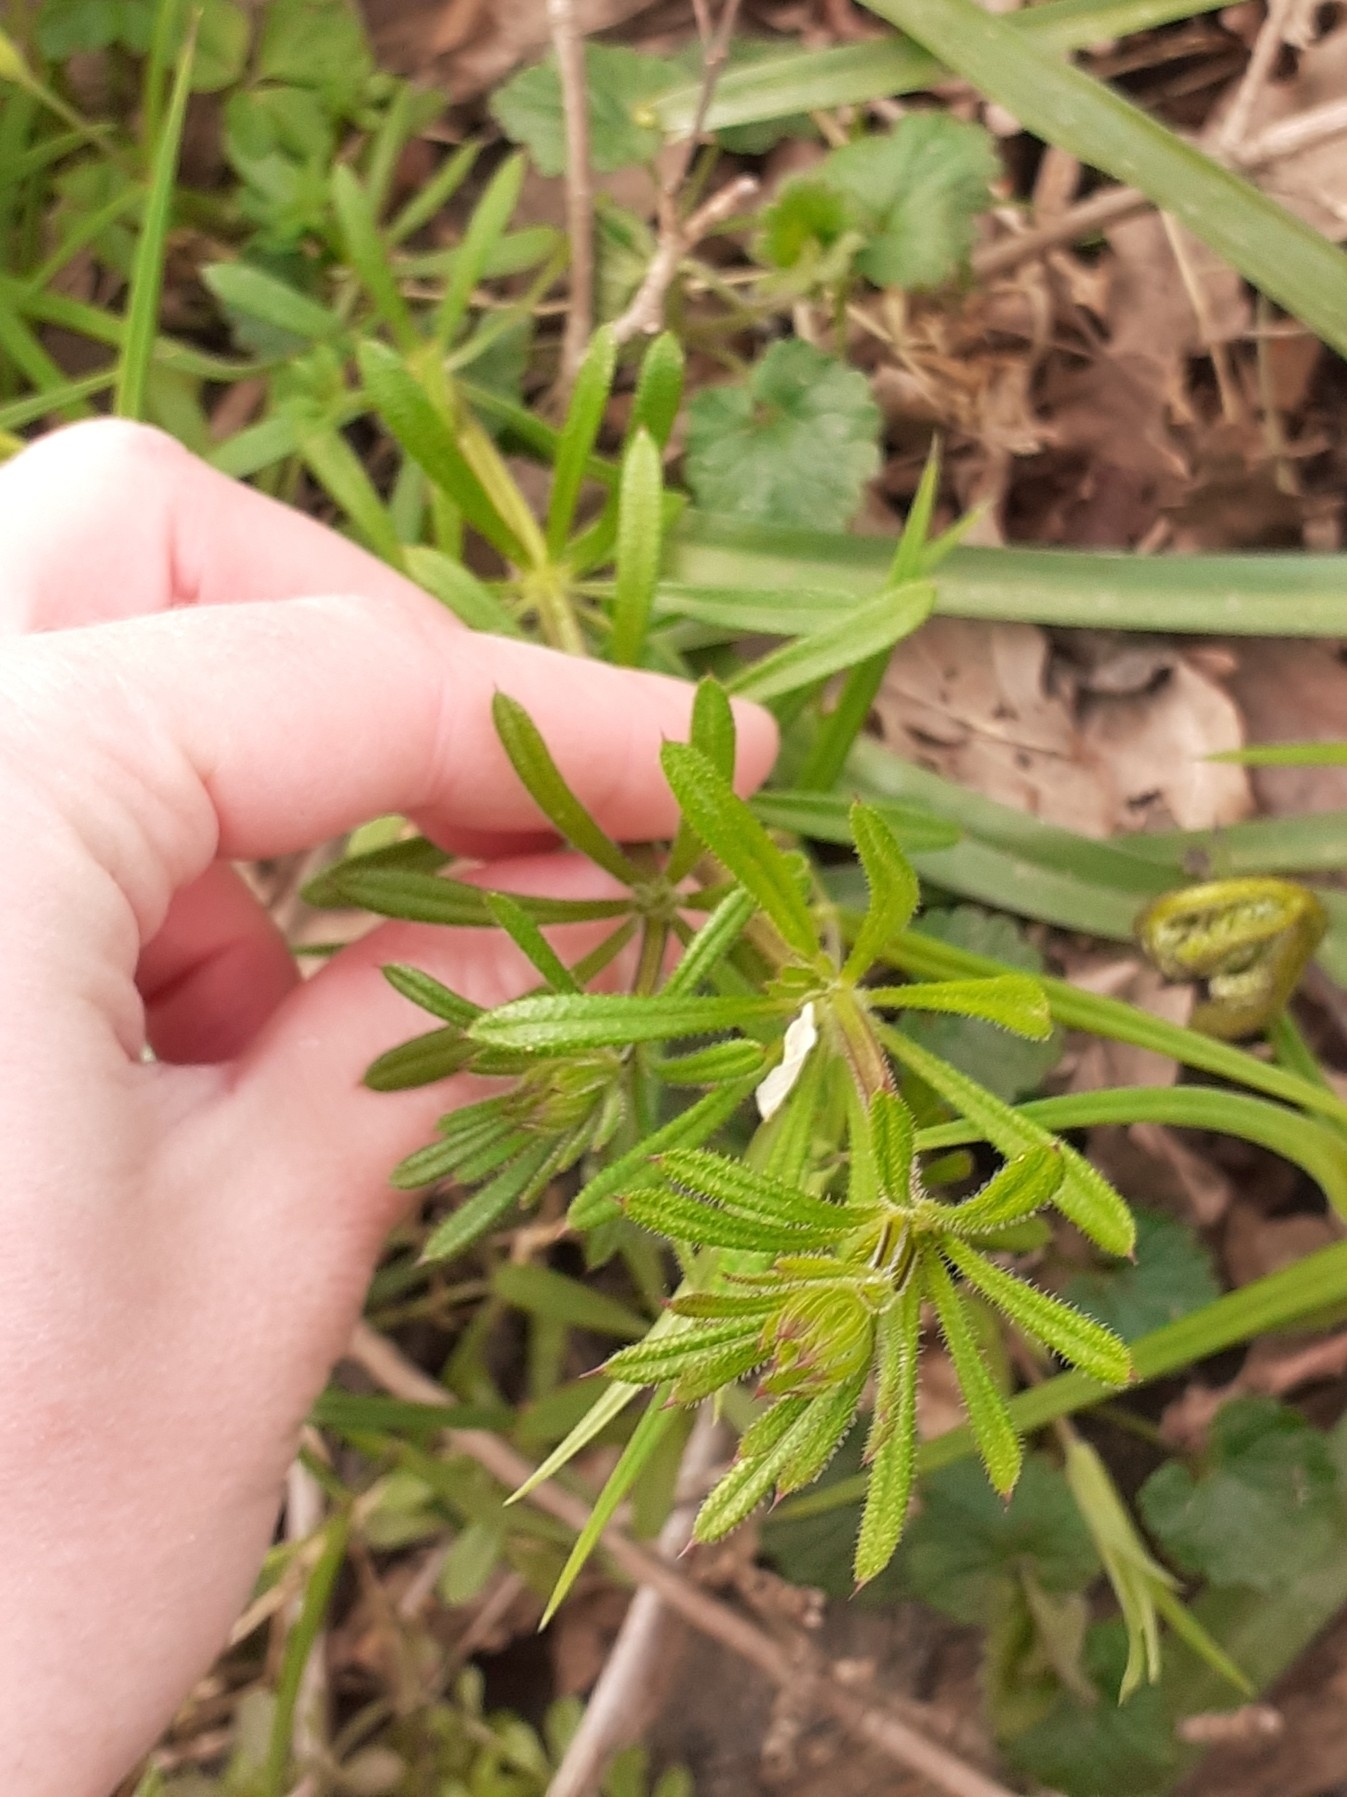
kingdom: Plantae
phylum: Tracheophyta
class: Magnoliopsida
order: Gentianales
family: Rubiaceae
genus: Galium
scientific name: Galium aparine
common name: Cleavers
